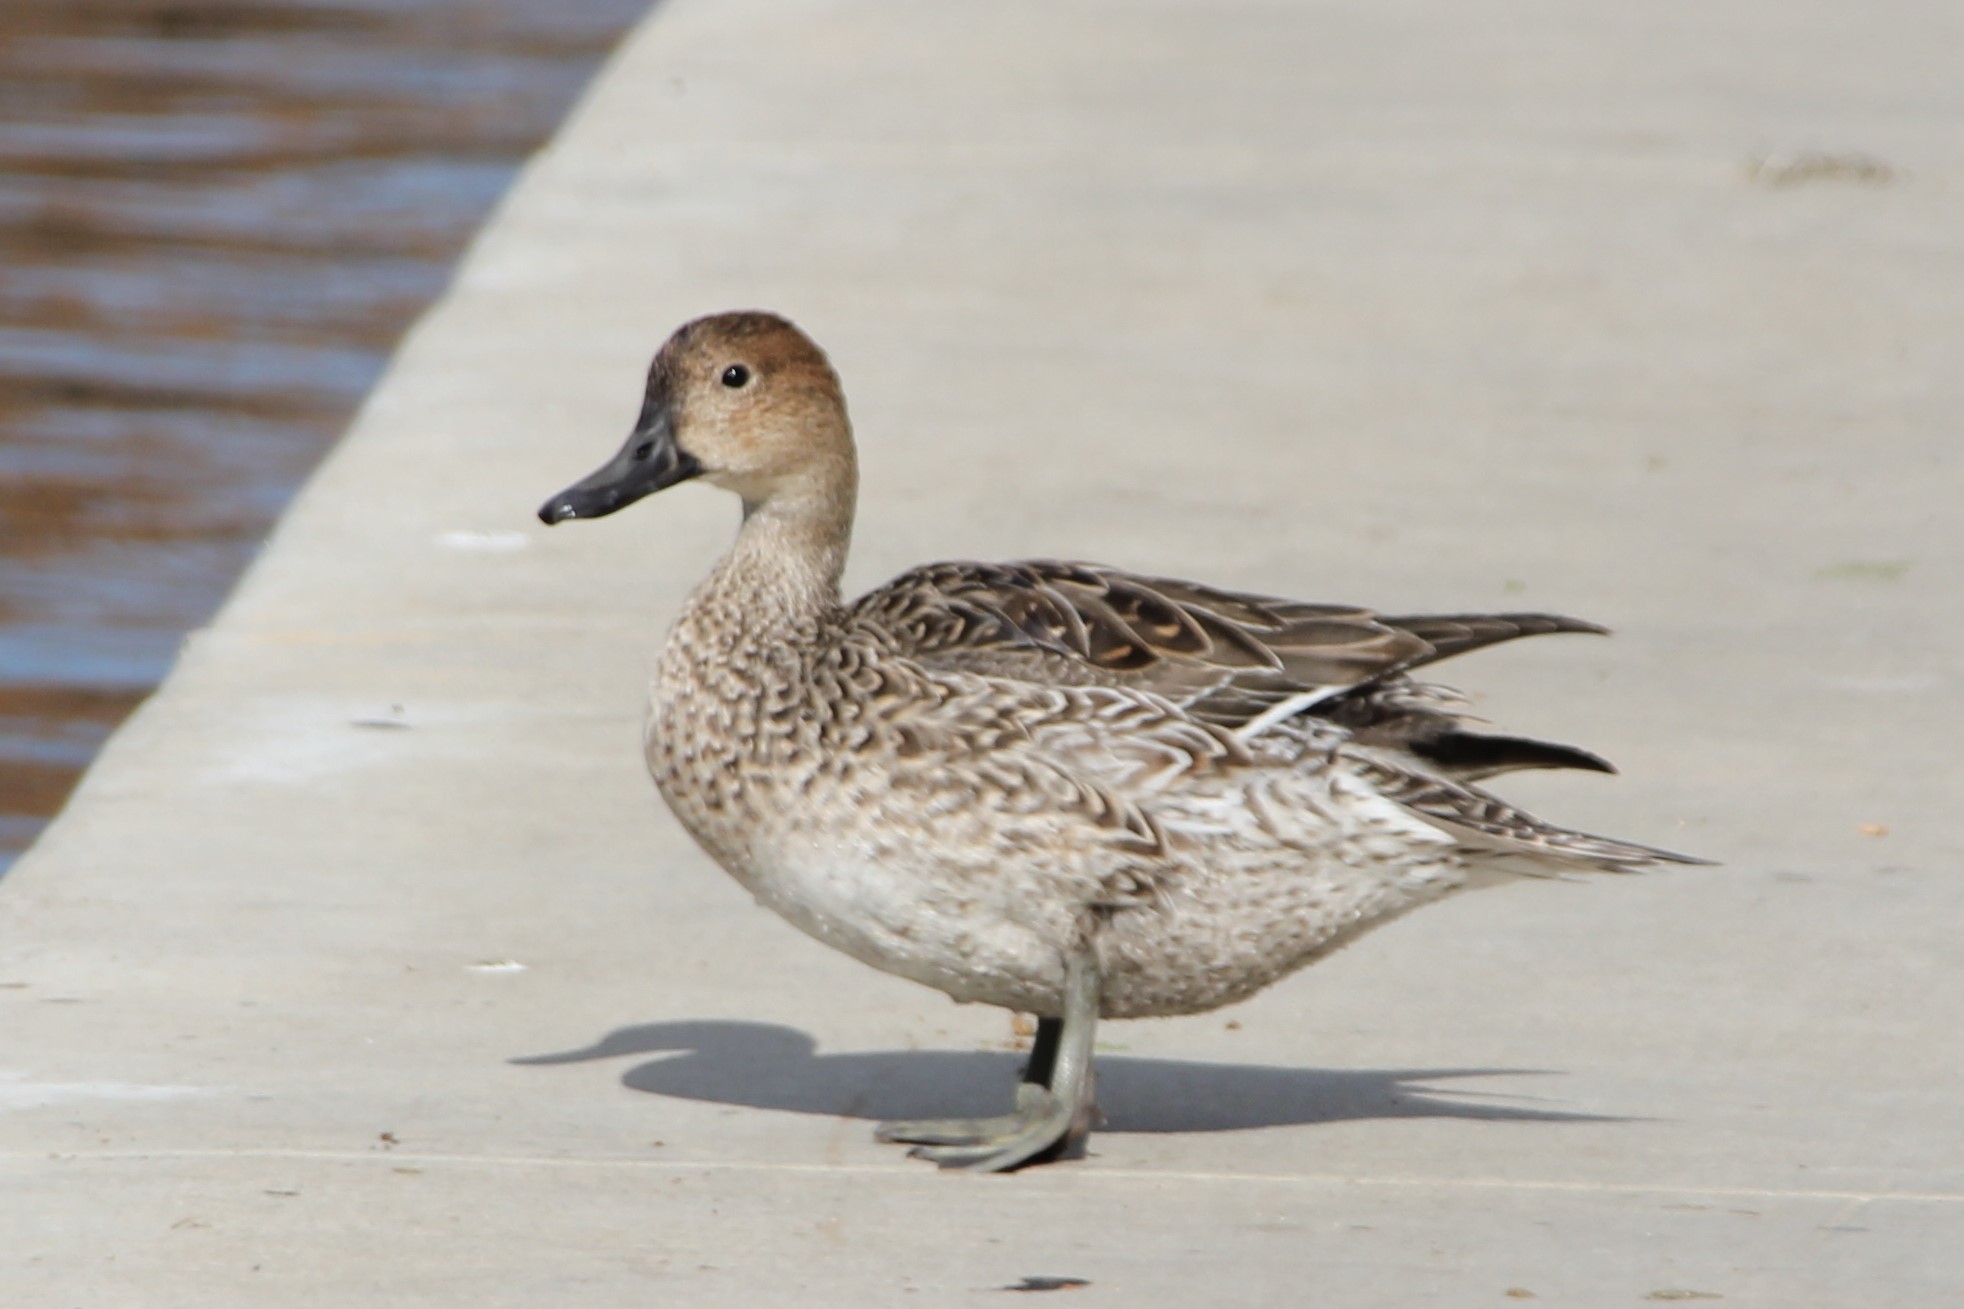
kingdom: Animalia
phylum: Chordata
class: Aves
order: Anseriformes
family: Anatidae
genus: Anas
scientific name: Anas acuta
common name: Northern pintail
